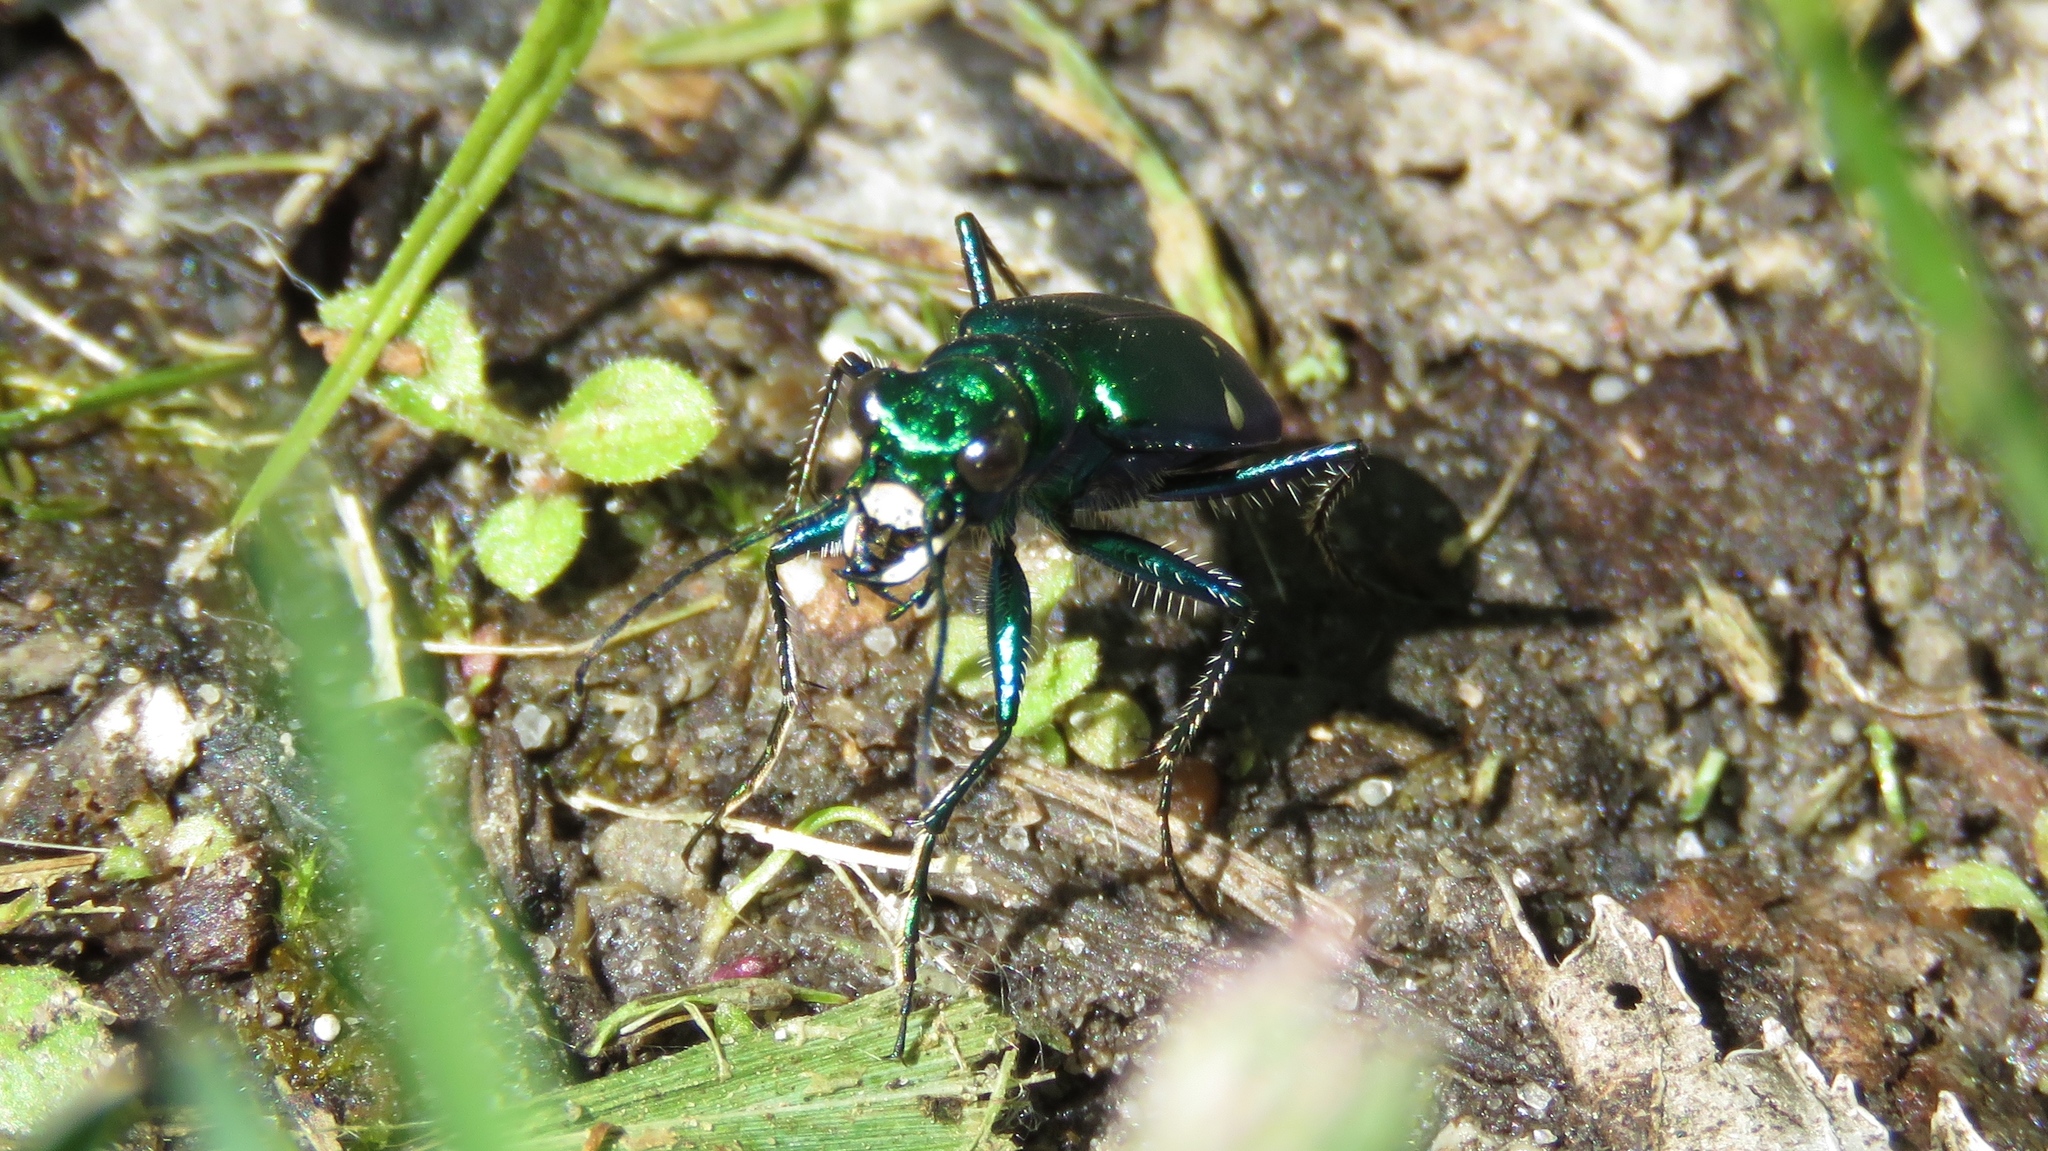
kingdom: Animalia
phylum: Arthropoda
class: Insecta
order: Coleoptera
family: Carabidae
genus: Cicindela
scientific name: Cicindela sexguttata
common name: Six-spotted tiger beetle
